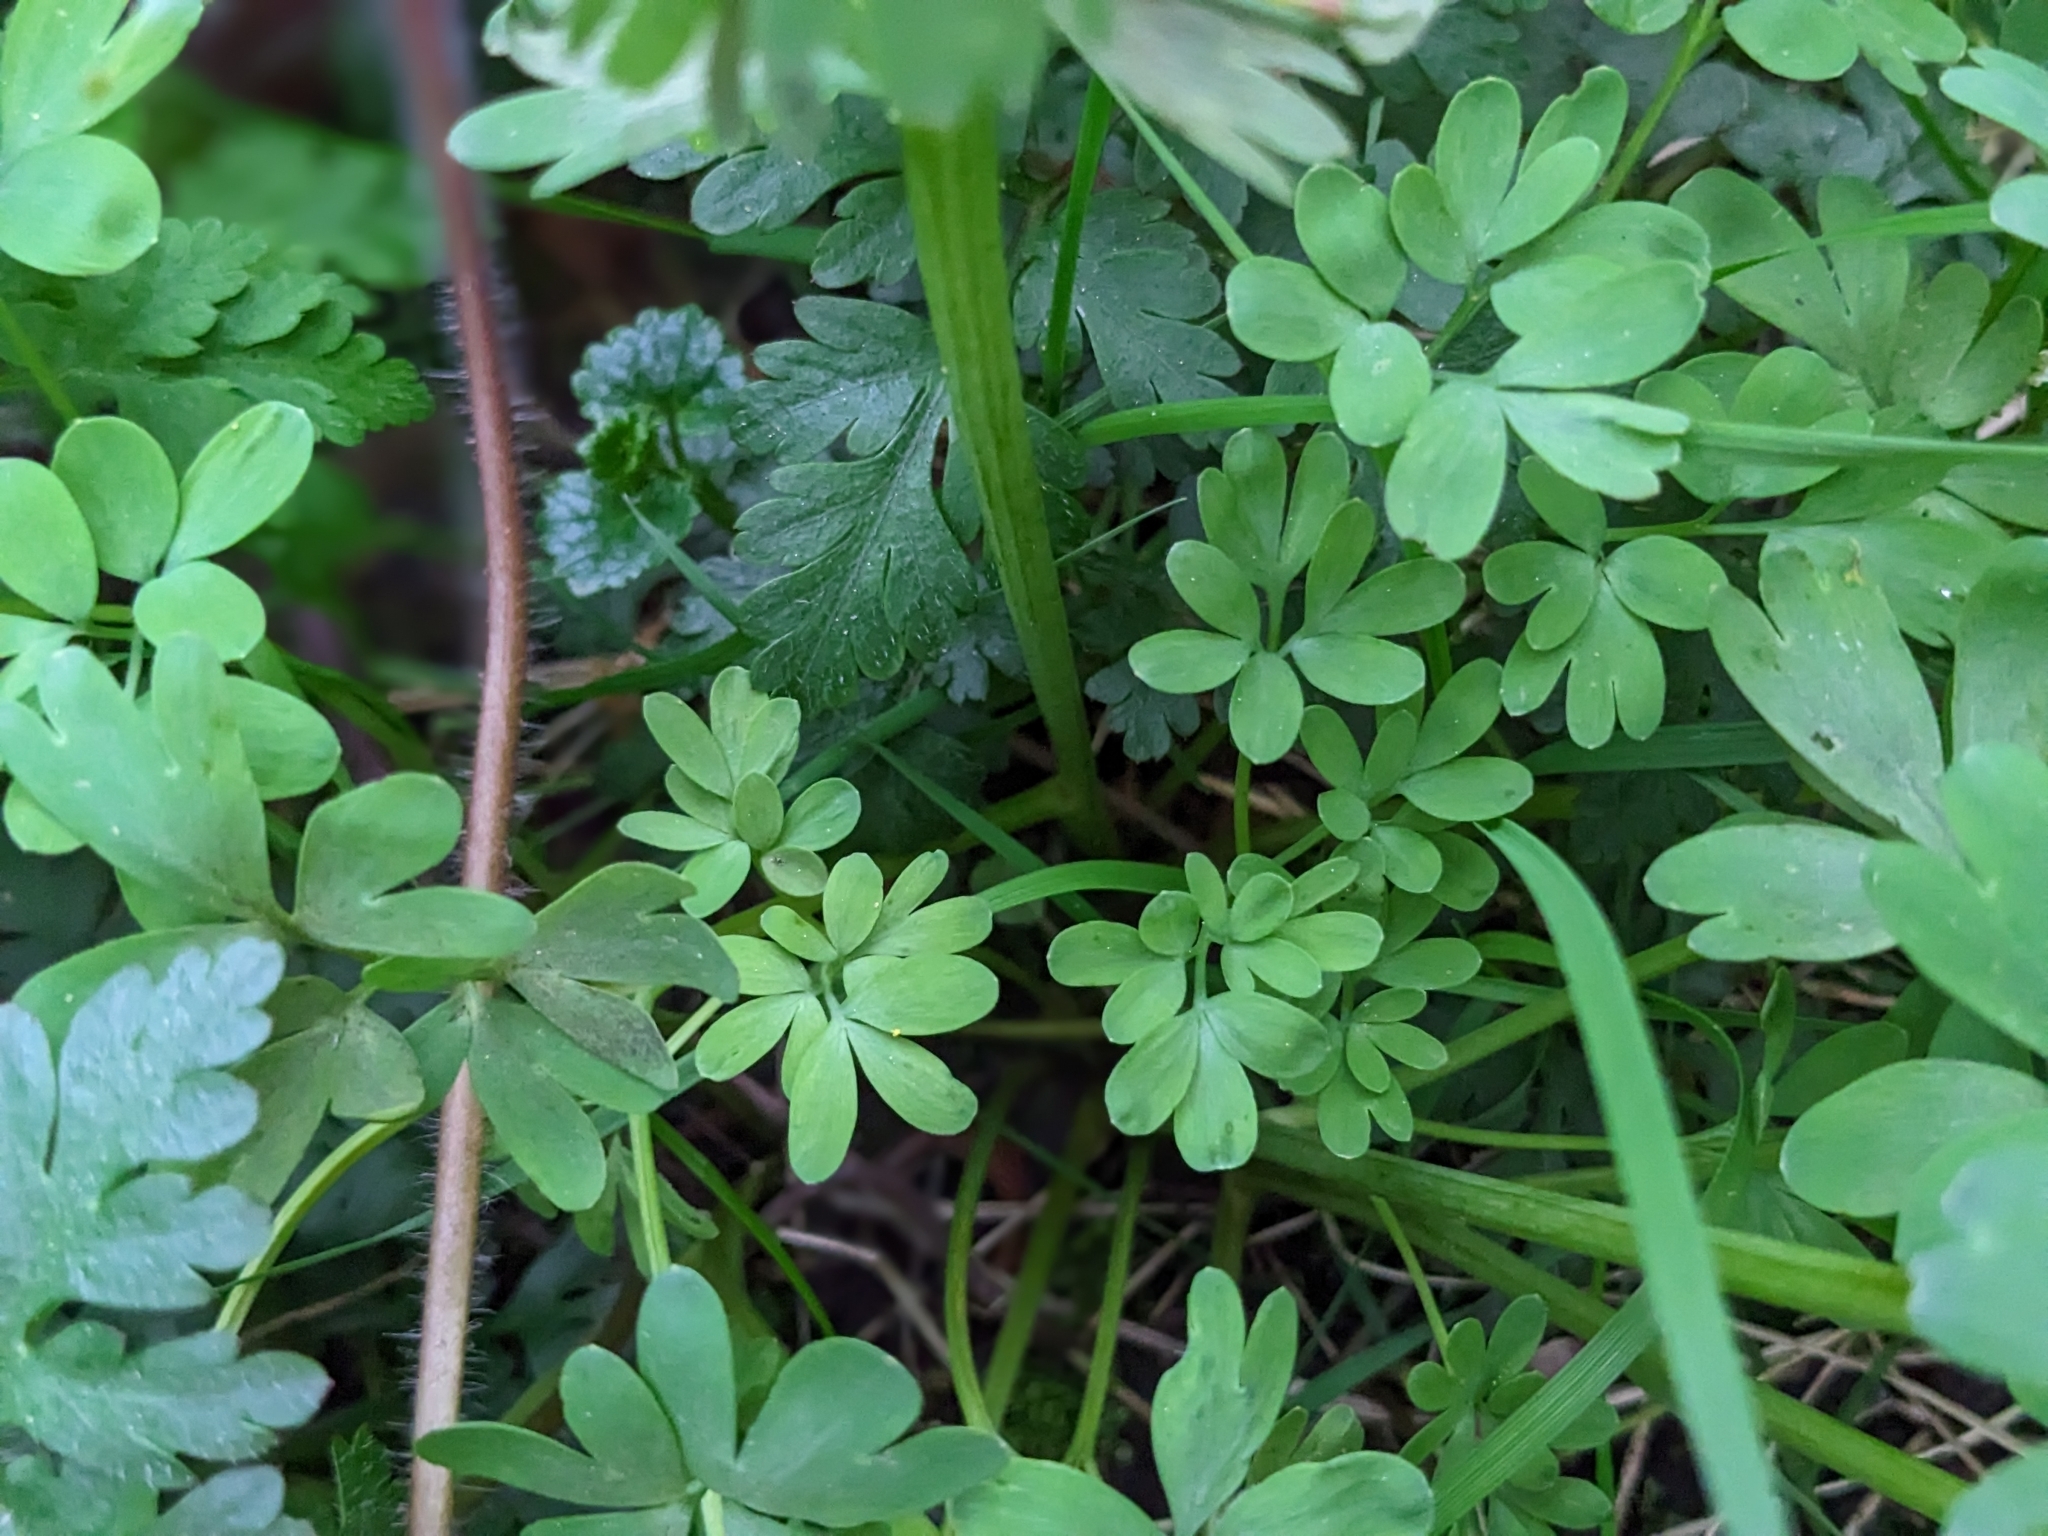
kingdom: Plantae
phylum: Tracheophyta
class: Magnoliopsida
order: Ranunculales
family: Papaveraceae
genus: Corydalis
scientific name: Corydalis solida
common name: Bird-in-a-bush
